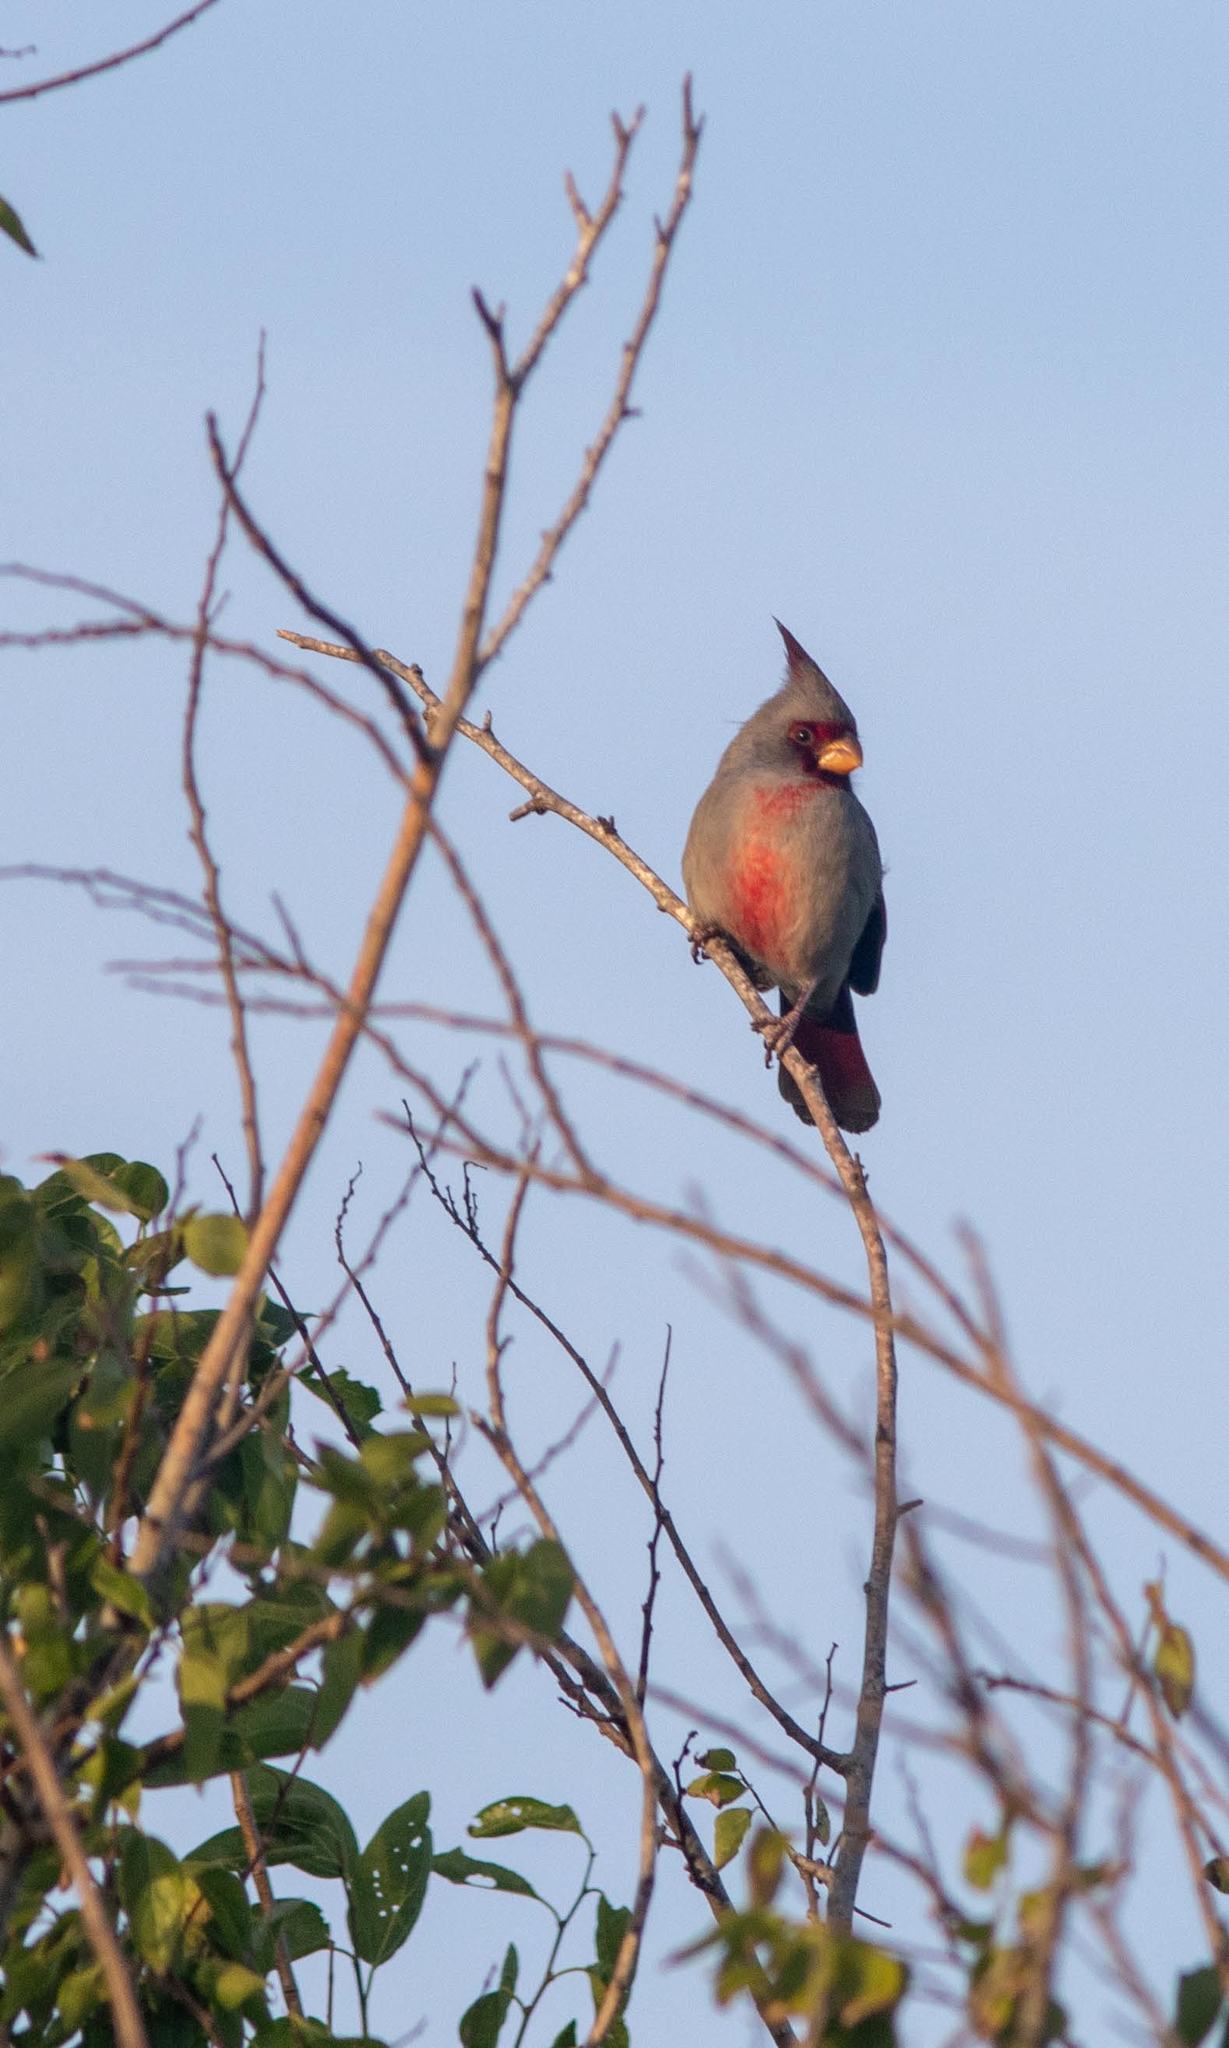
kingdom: Animalia
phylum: Chordata
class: Aves
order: Passeriformes
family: Cardinalidae
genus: Cardinalis
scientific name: Cardinalis sinuatus
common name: Pyrrhuloxia
